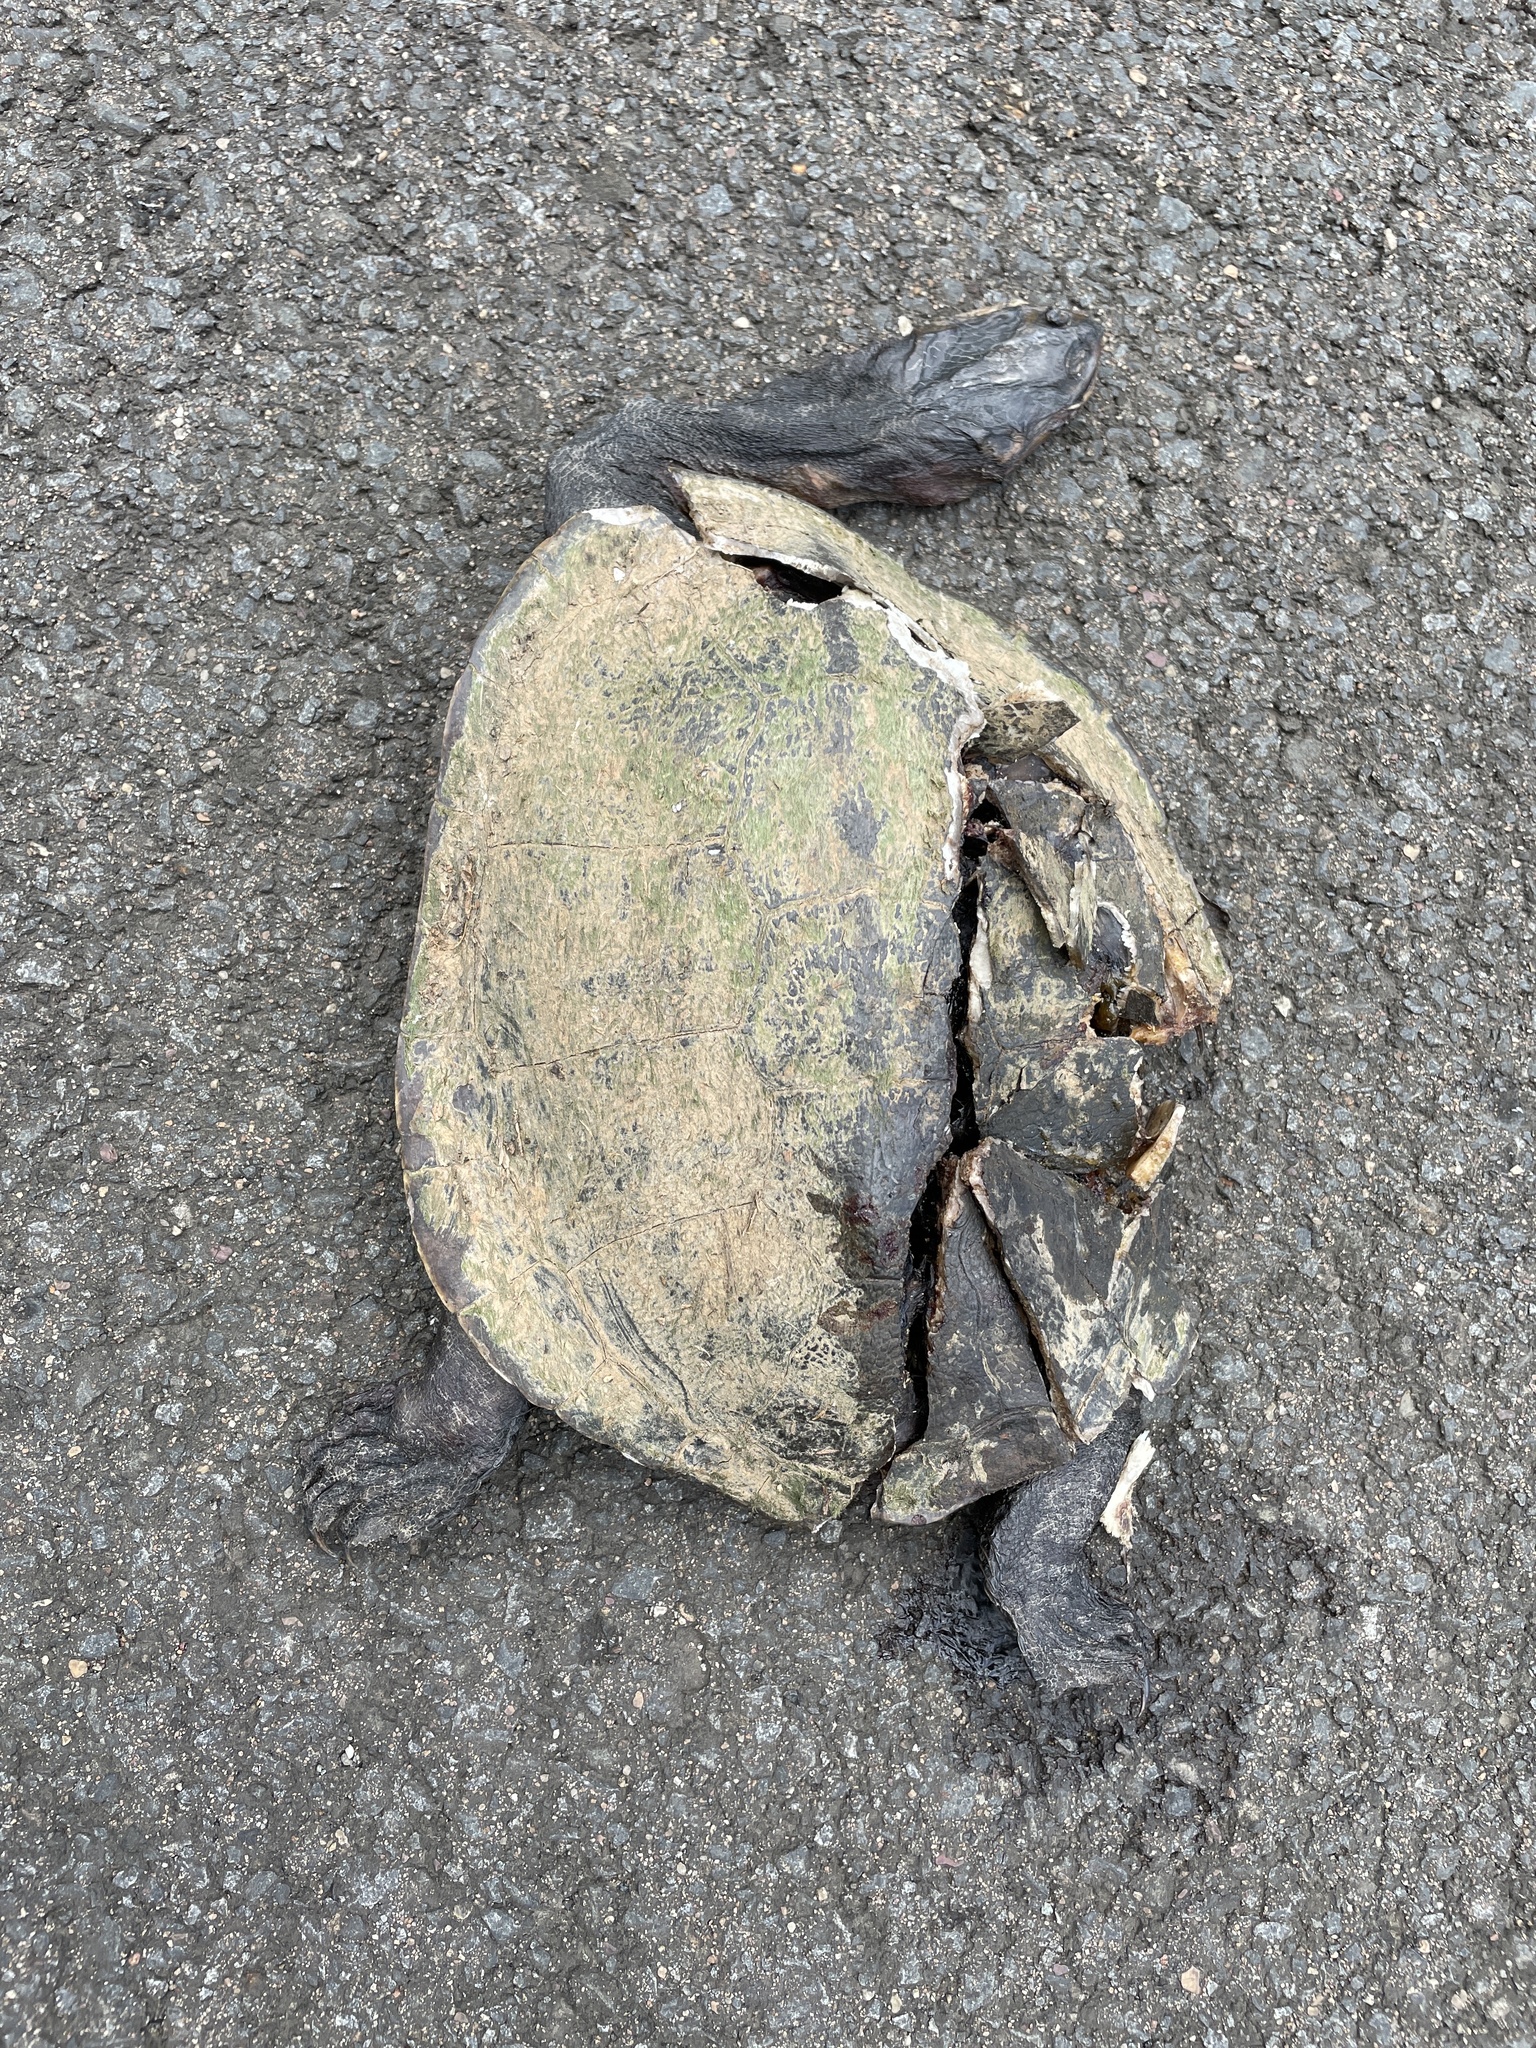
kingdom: Animalia
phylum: Chordata
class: Testudines
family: Chelidae
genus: Chelodina
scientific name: Chelodina expansa
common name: Giant snakeneck turtle
